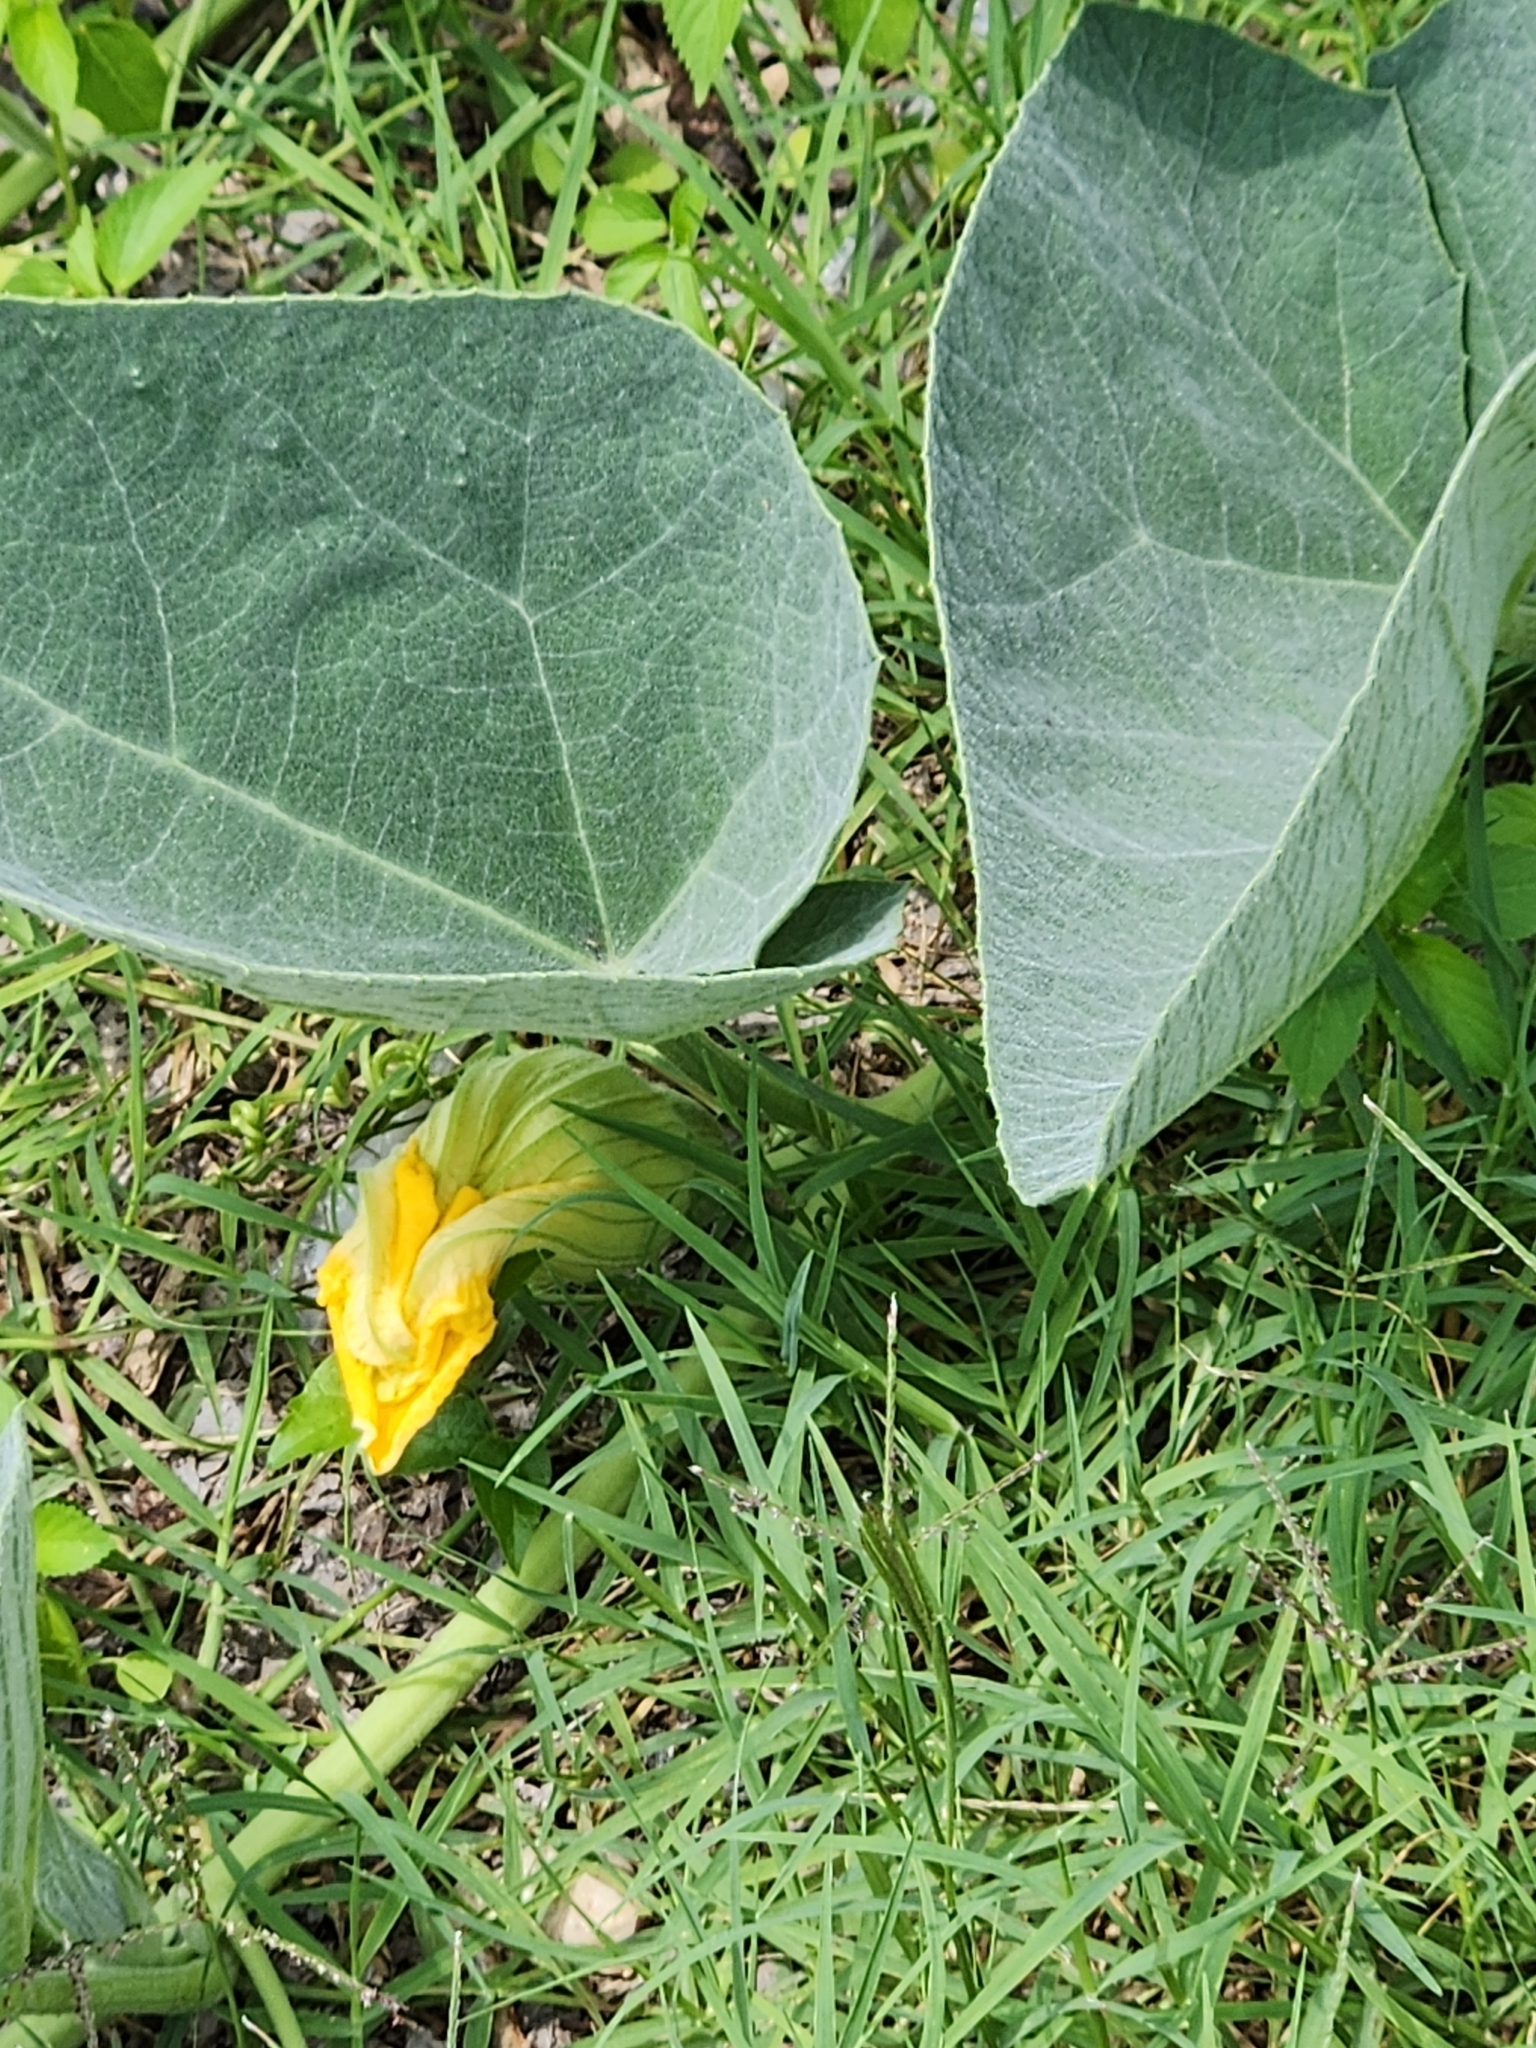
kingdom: Plantae
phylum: Tracheophyta
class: Magnoliopsida
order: Cucurbitales
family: Cucurbitaceae
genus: Cucurbita
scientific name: Cucurbita foetidissima
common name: Buffalo gourd
